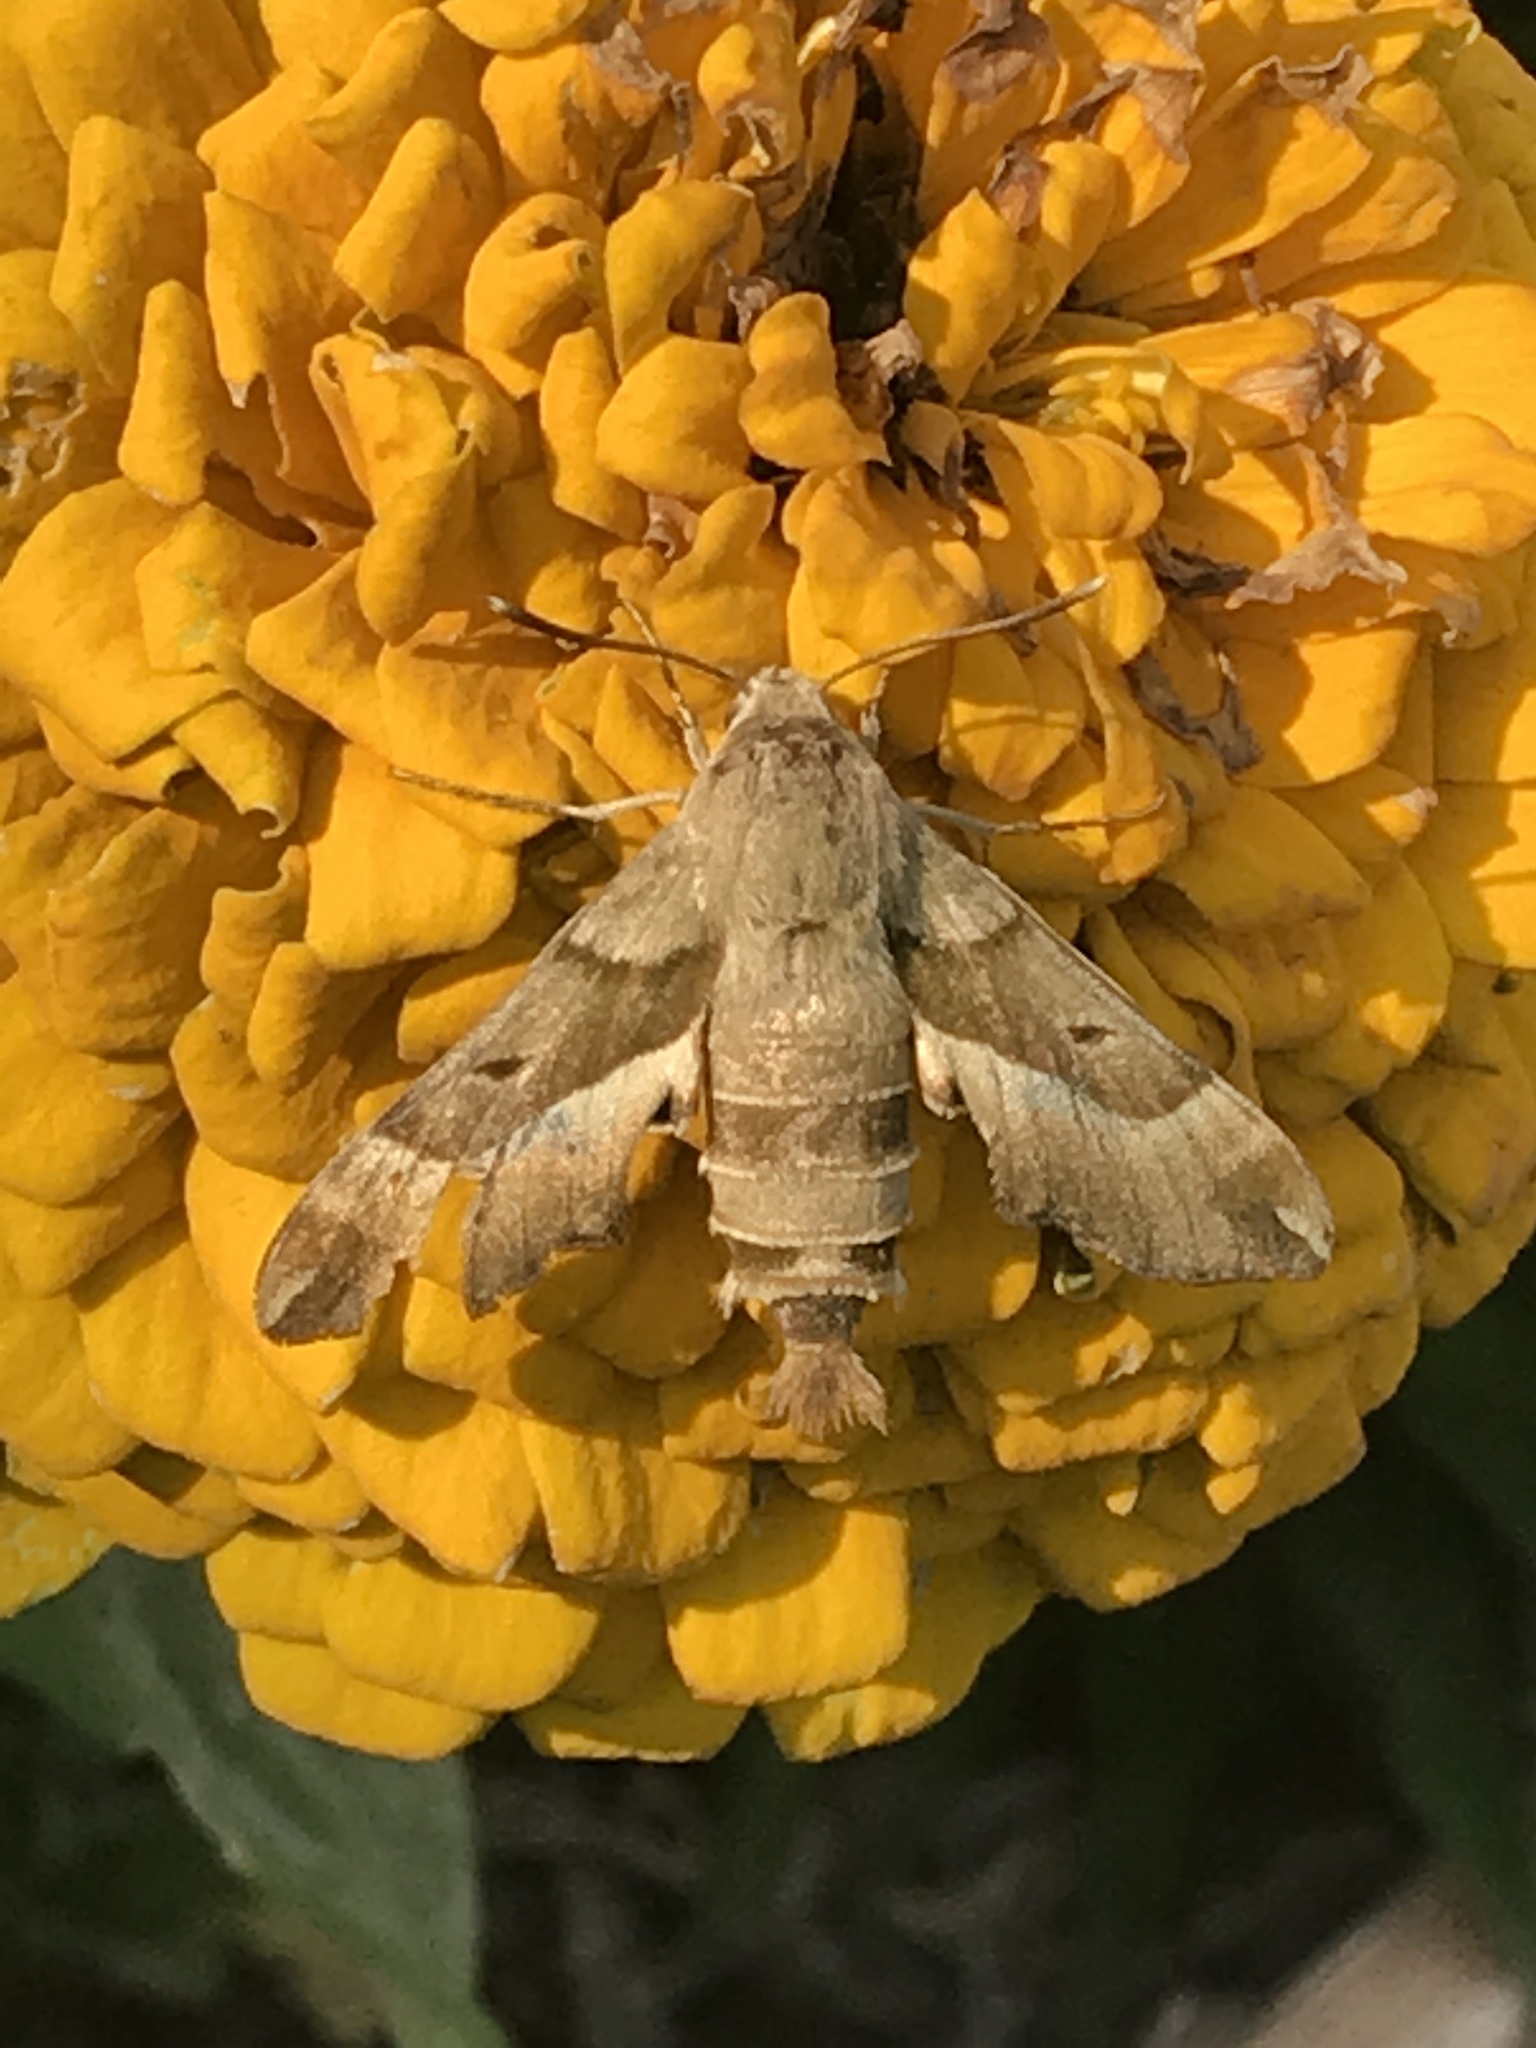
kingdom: Animalia
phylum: Arthropoda
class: Insecta
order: Lepidoptera
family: Sphingidae
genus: Proserpinus
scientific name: Proserpinus juanita
